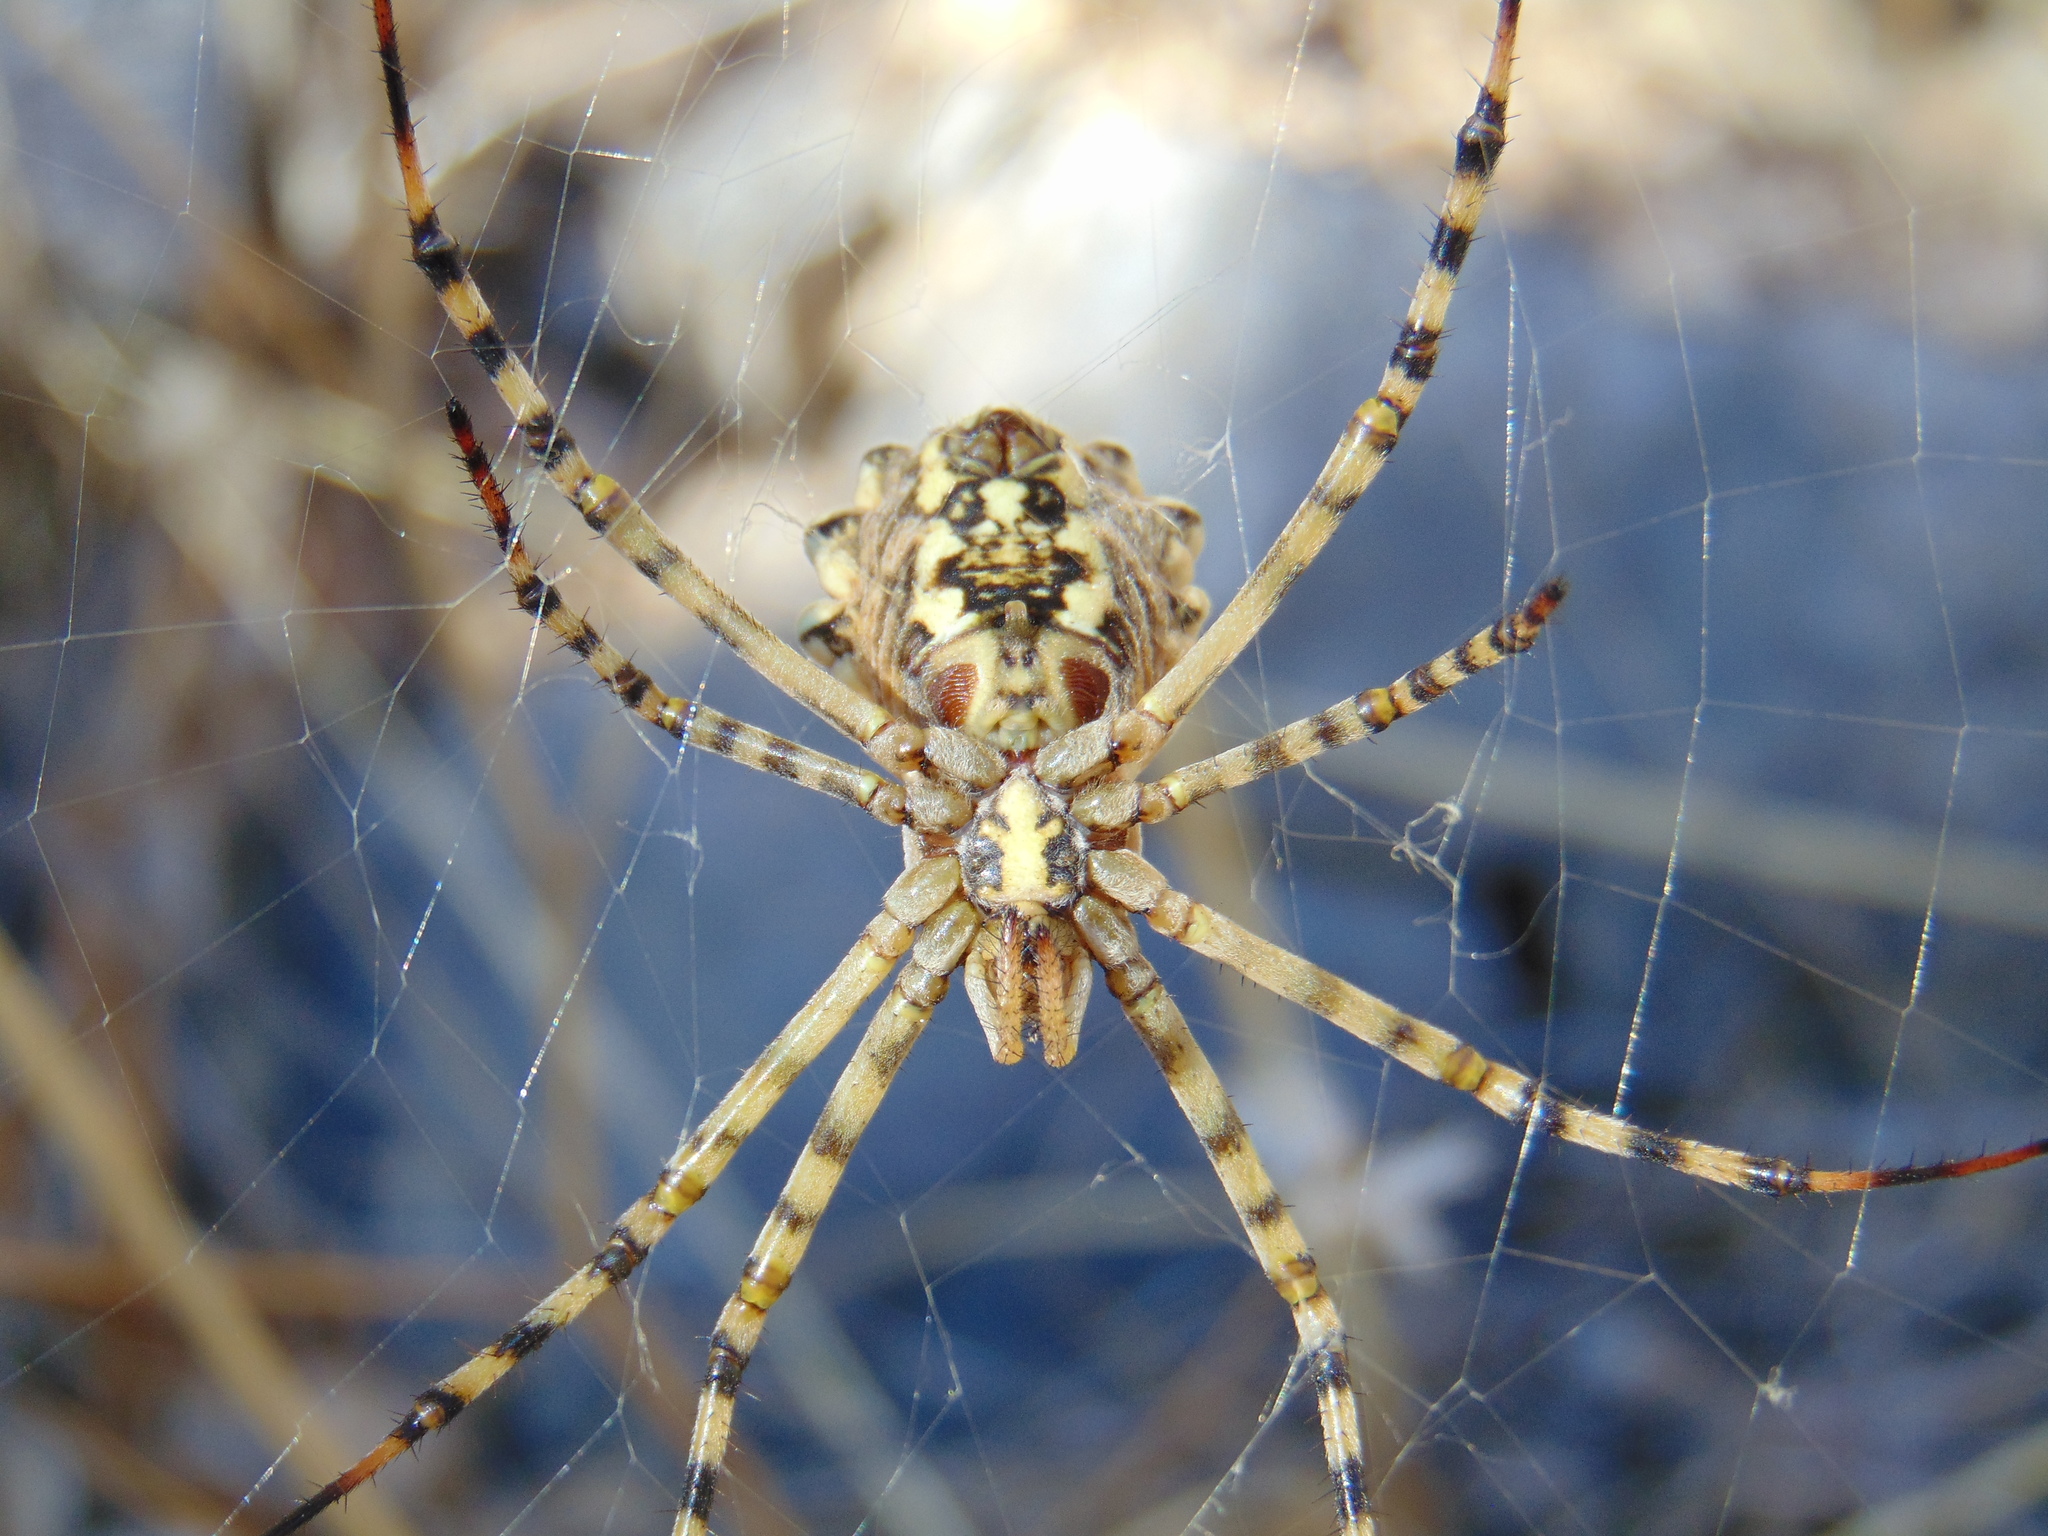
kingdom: Animalia
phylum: Arthropoda
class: Arachnida
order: Araneae
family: Araneidae
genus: Argiope
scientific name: Argiope lobata
